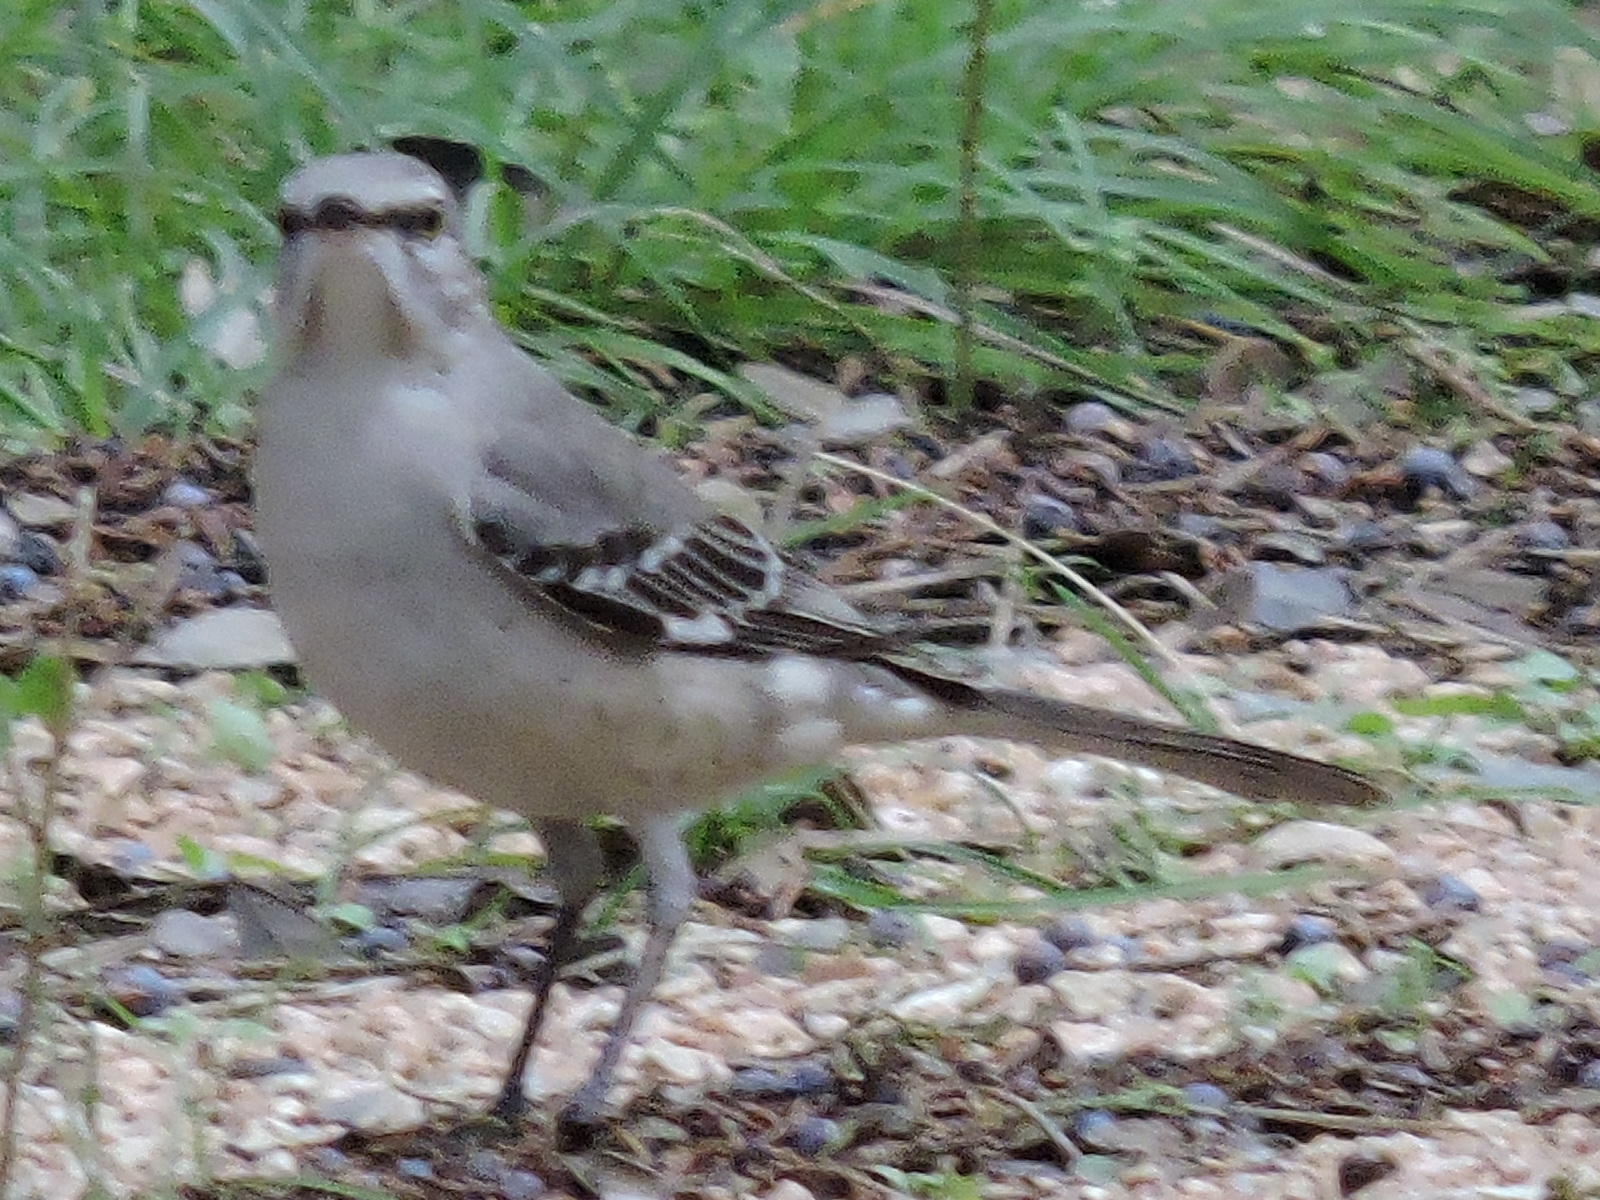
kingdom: Animalia
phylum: Chordata
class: Aves
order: Passeriformes
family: Mimidae
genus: Mimus
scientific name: Mimus polyglottos
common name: Northern mockingbird
